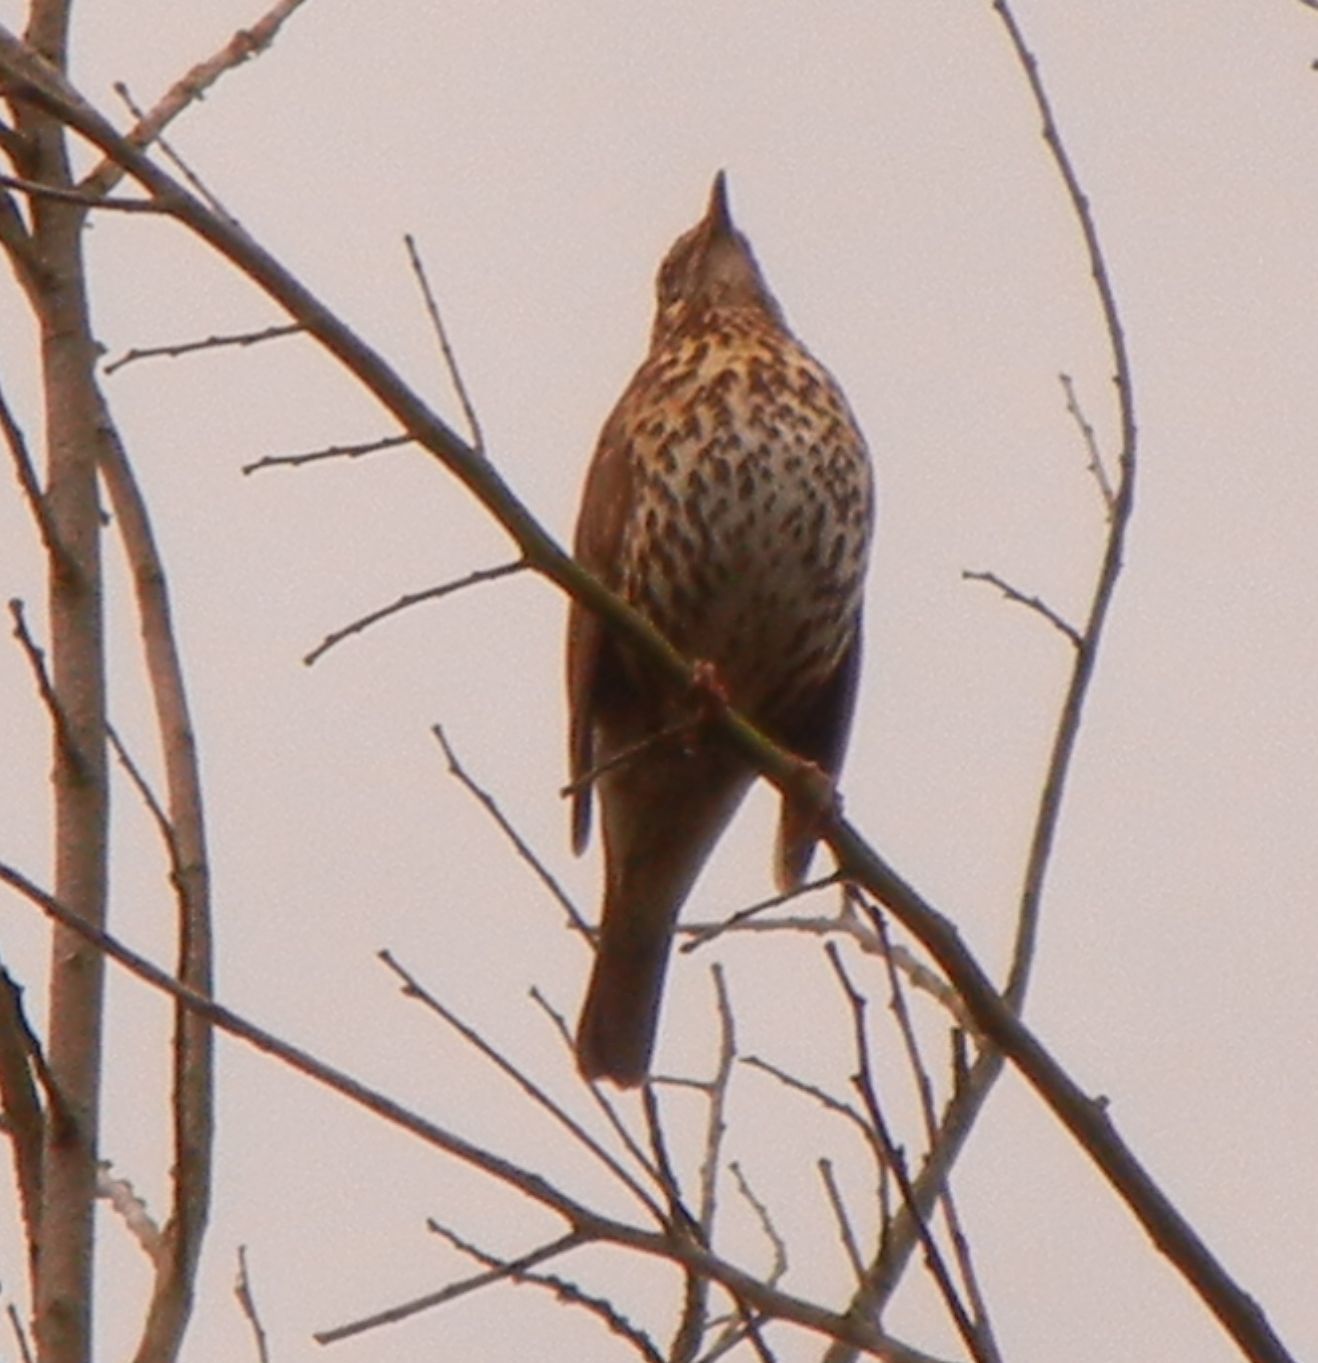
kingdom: Animalia
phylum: Chordata
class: Aves
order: Passeriformes
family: Turdidae
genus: Turdus
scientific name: Turdus philomelos
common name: Song thrush
